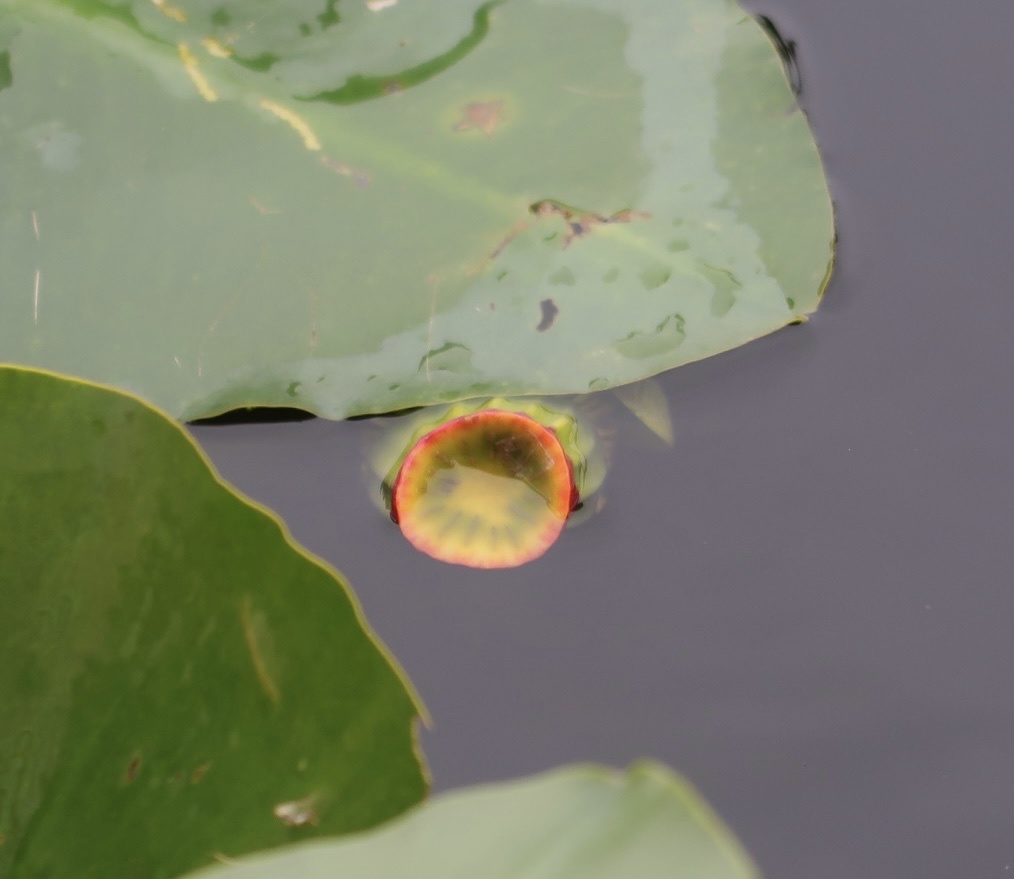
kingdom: Plantae
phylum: Tracheophyta
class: Magnoliopsida
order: Nymphaeales
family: Nymphaeaceae
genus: Nuphar
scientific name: Nuphar advena
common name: Spatter-dock
